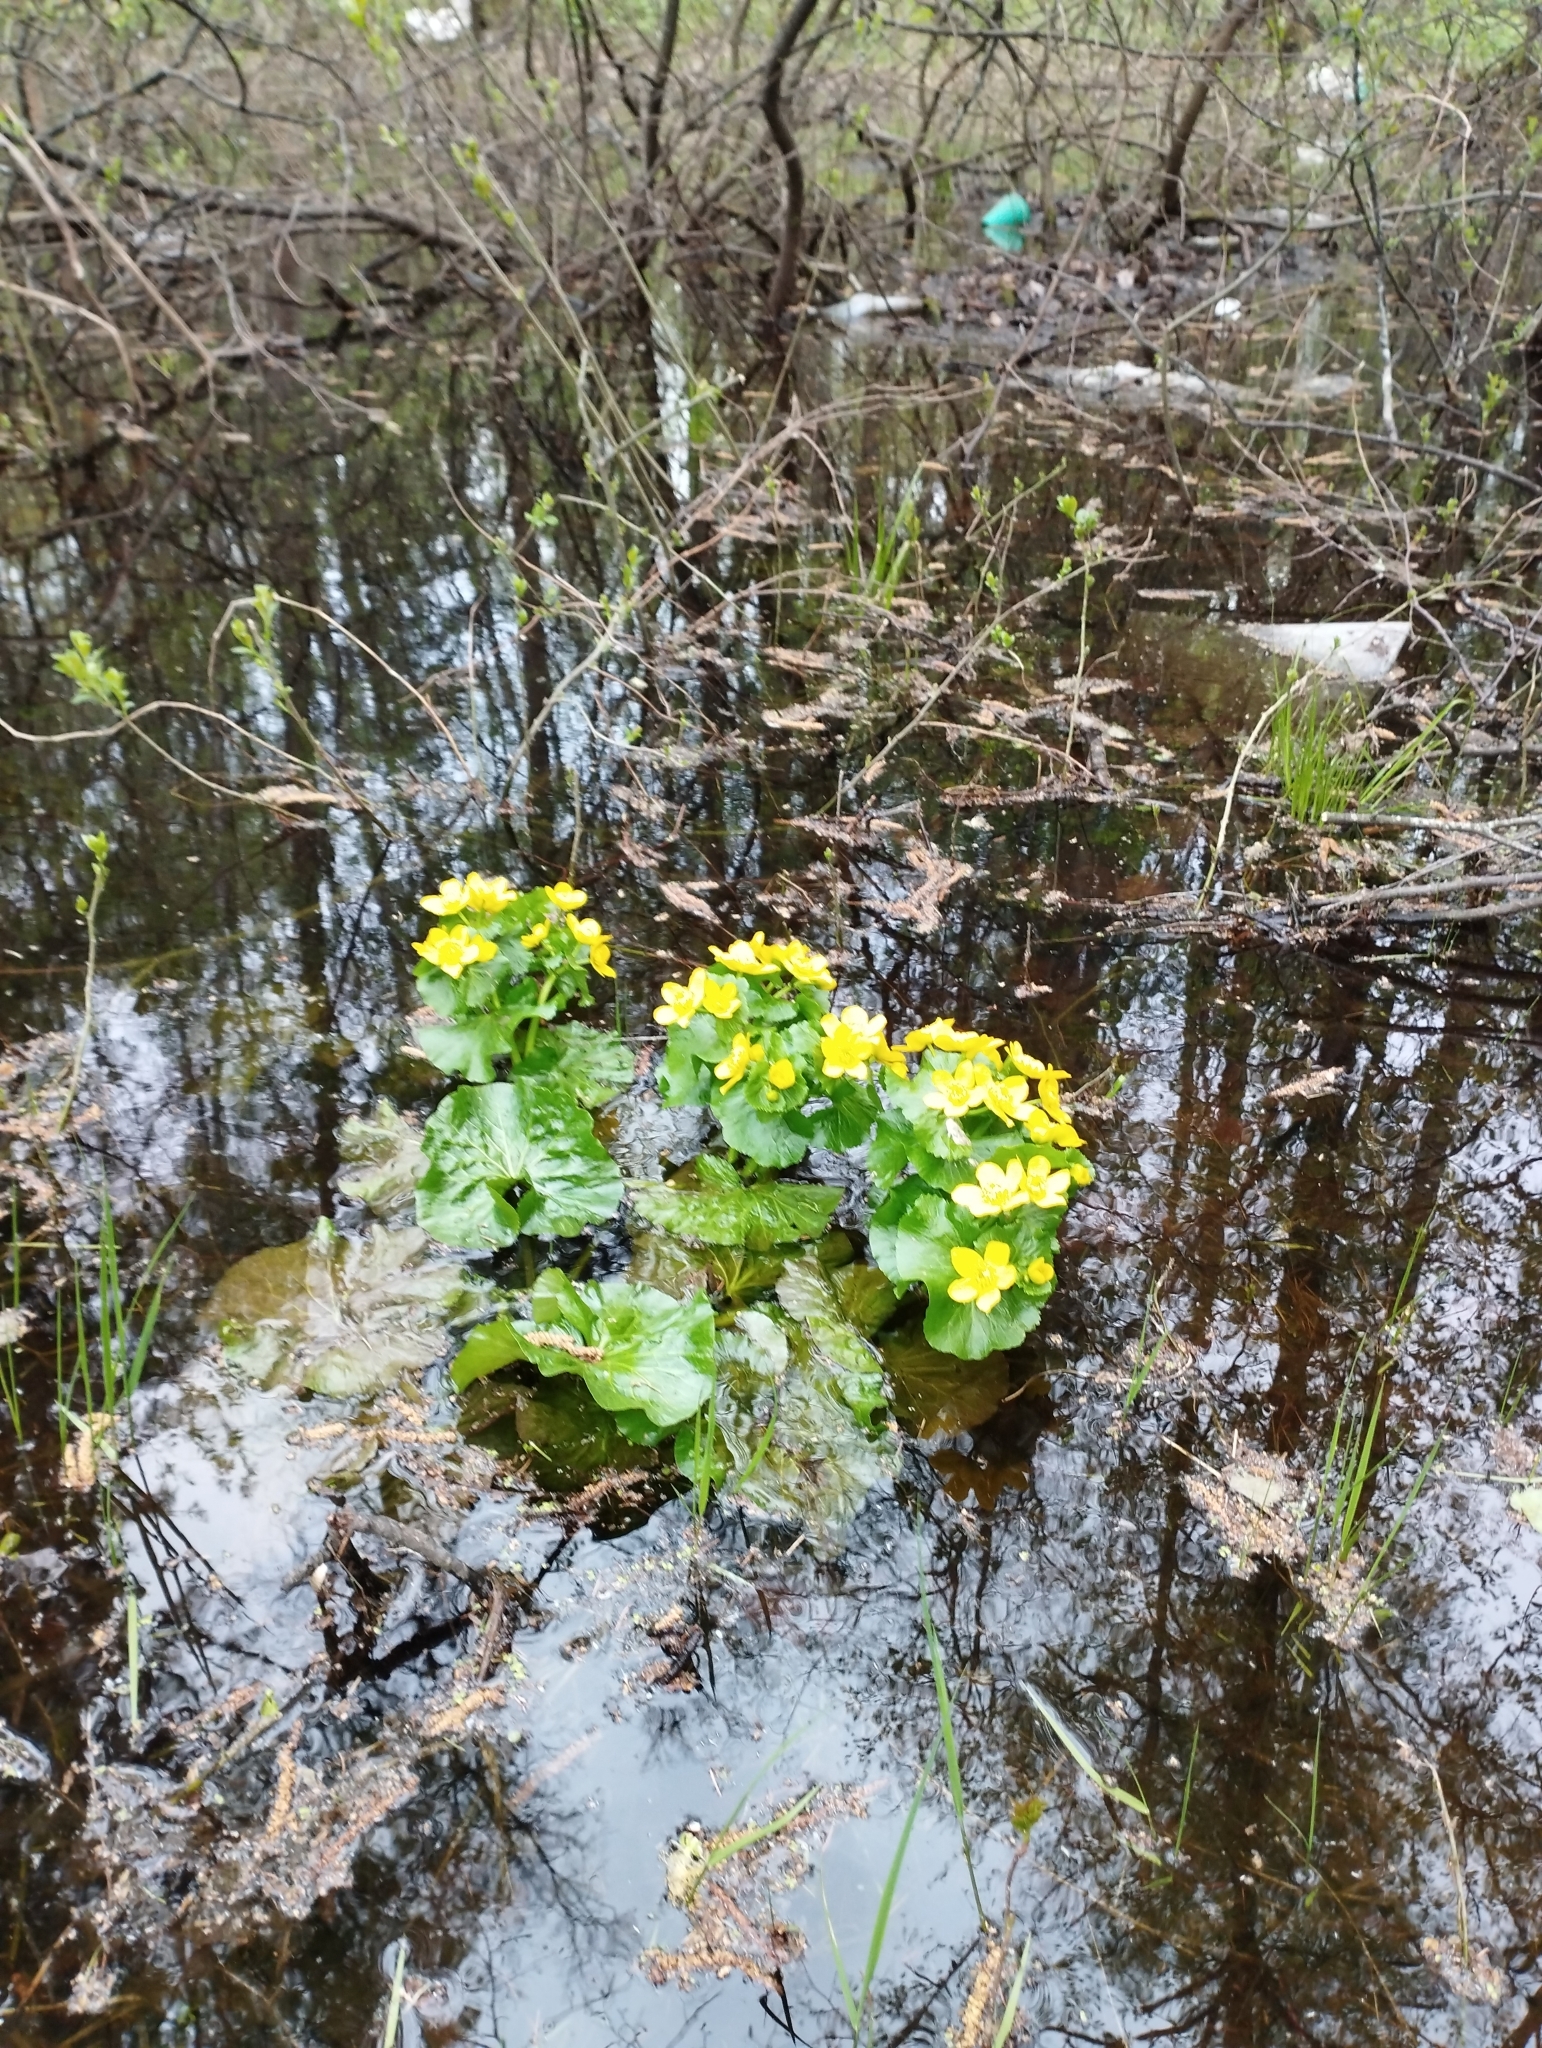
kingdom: Plantae
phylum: Tracheophyta
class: Magnoliopsida
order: Ranunculales
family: Ranunculaceae
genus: Caltha
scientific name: Caltha palustris
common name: Marsh marigold
